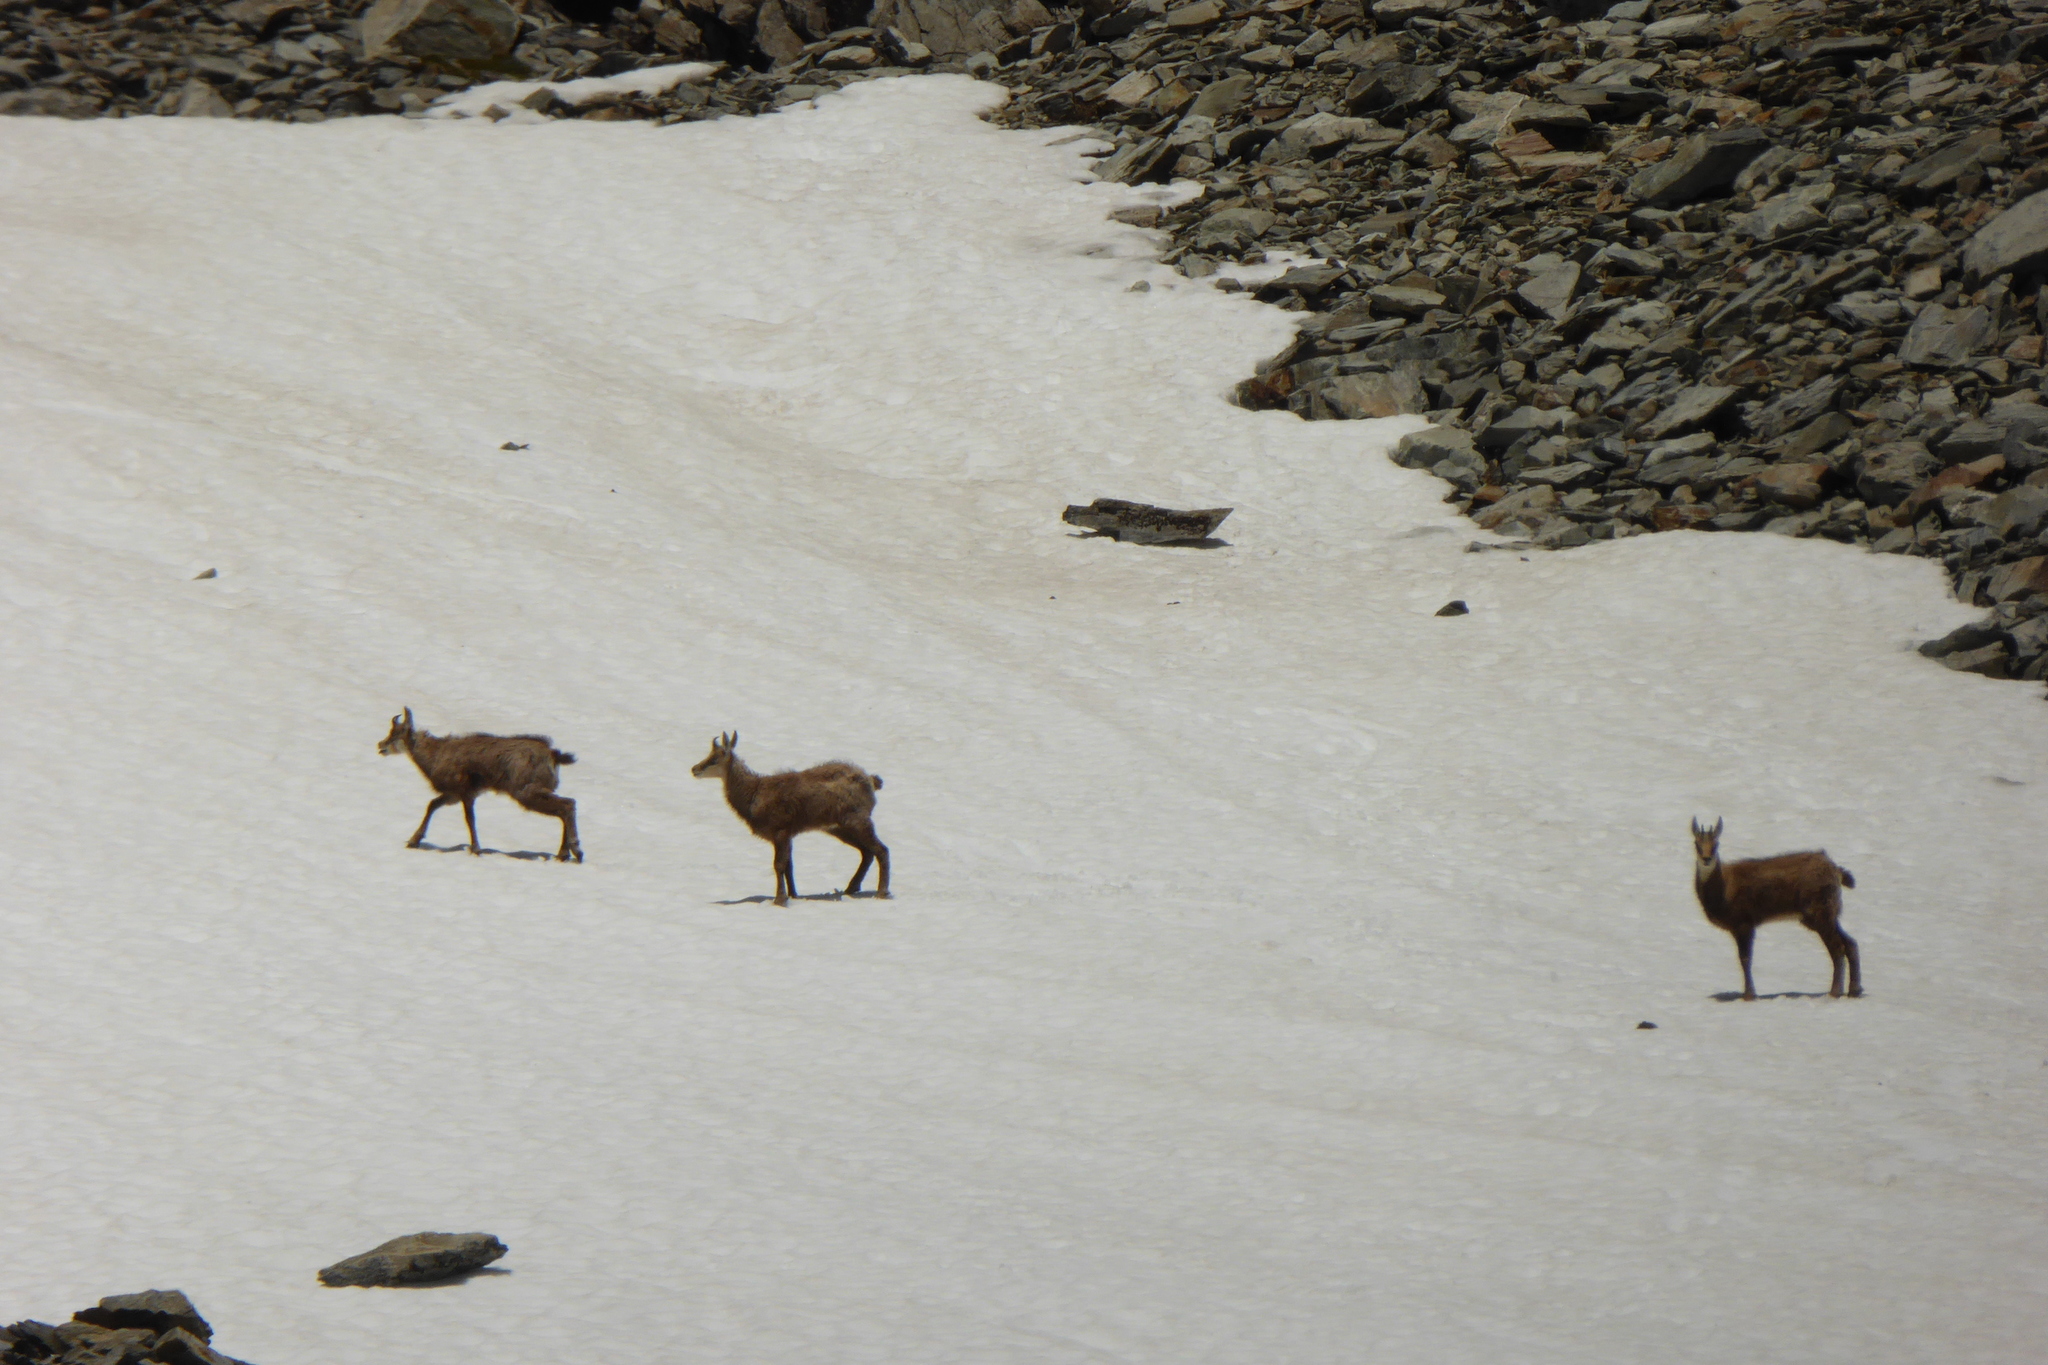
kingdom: Animalia
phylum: Chordata
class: Mammalia
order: Artiodactyla
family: Bovidae
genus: Rupicapra
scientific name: Rupicapra rupicapra
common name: Chamois
